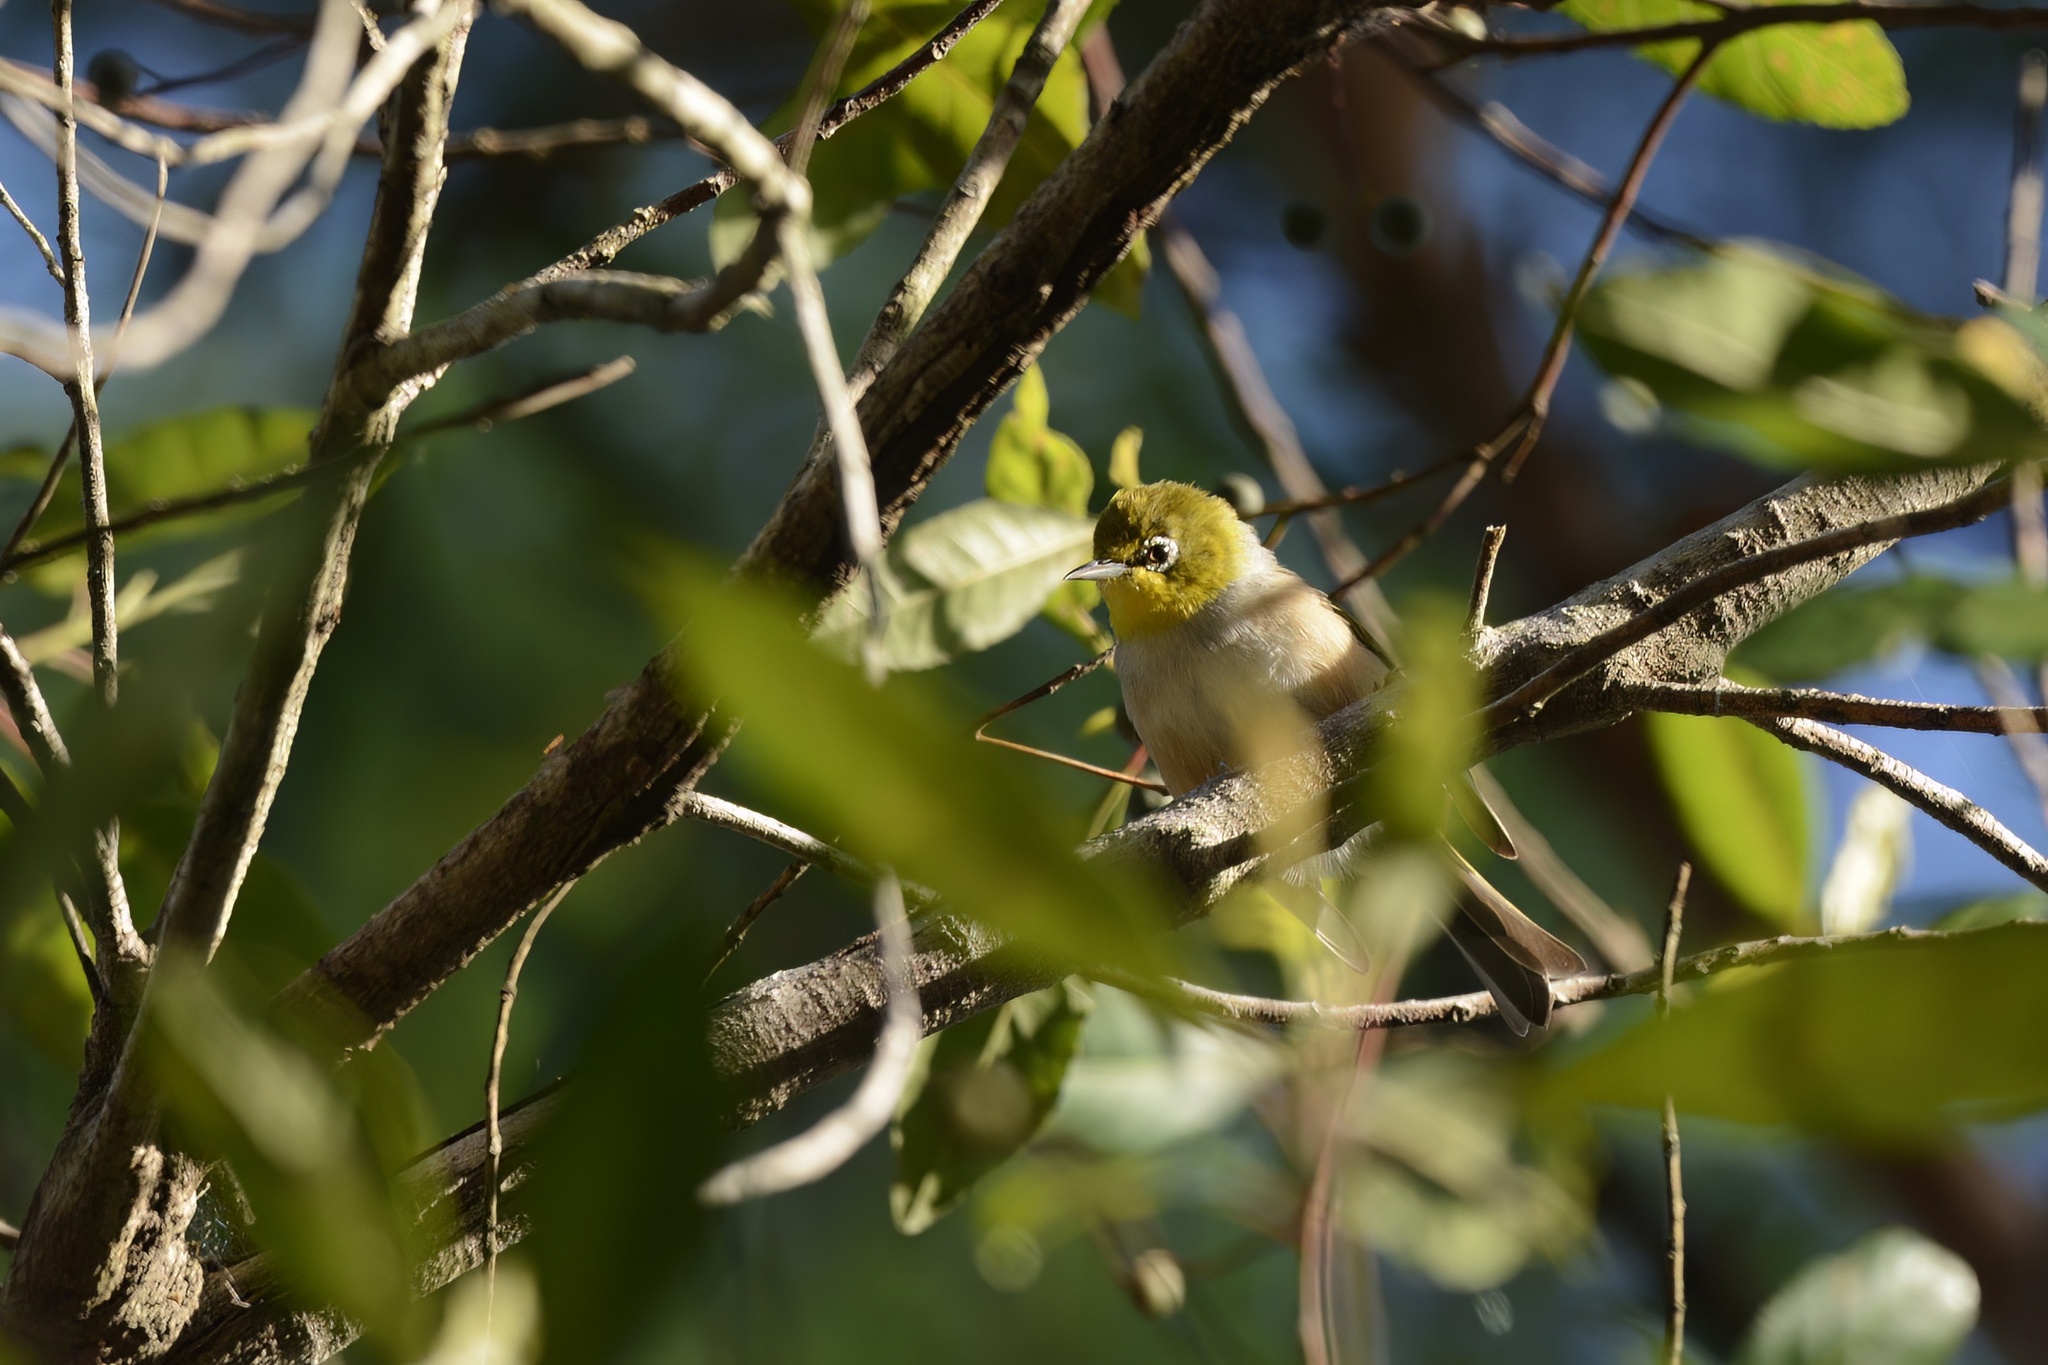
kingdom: Animalia
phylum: Chordata
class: Aves
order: Passeriformes
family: Zosteropidae
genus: Zosterops
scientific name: Zosterops lateralis
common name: Silvereye
